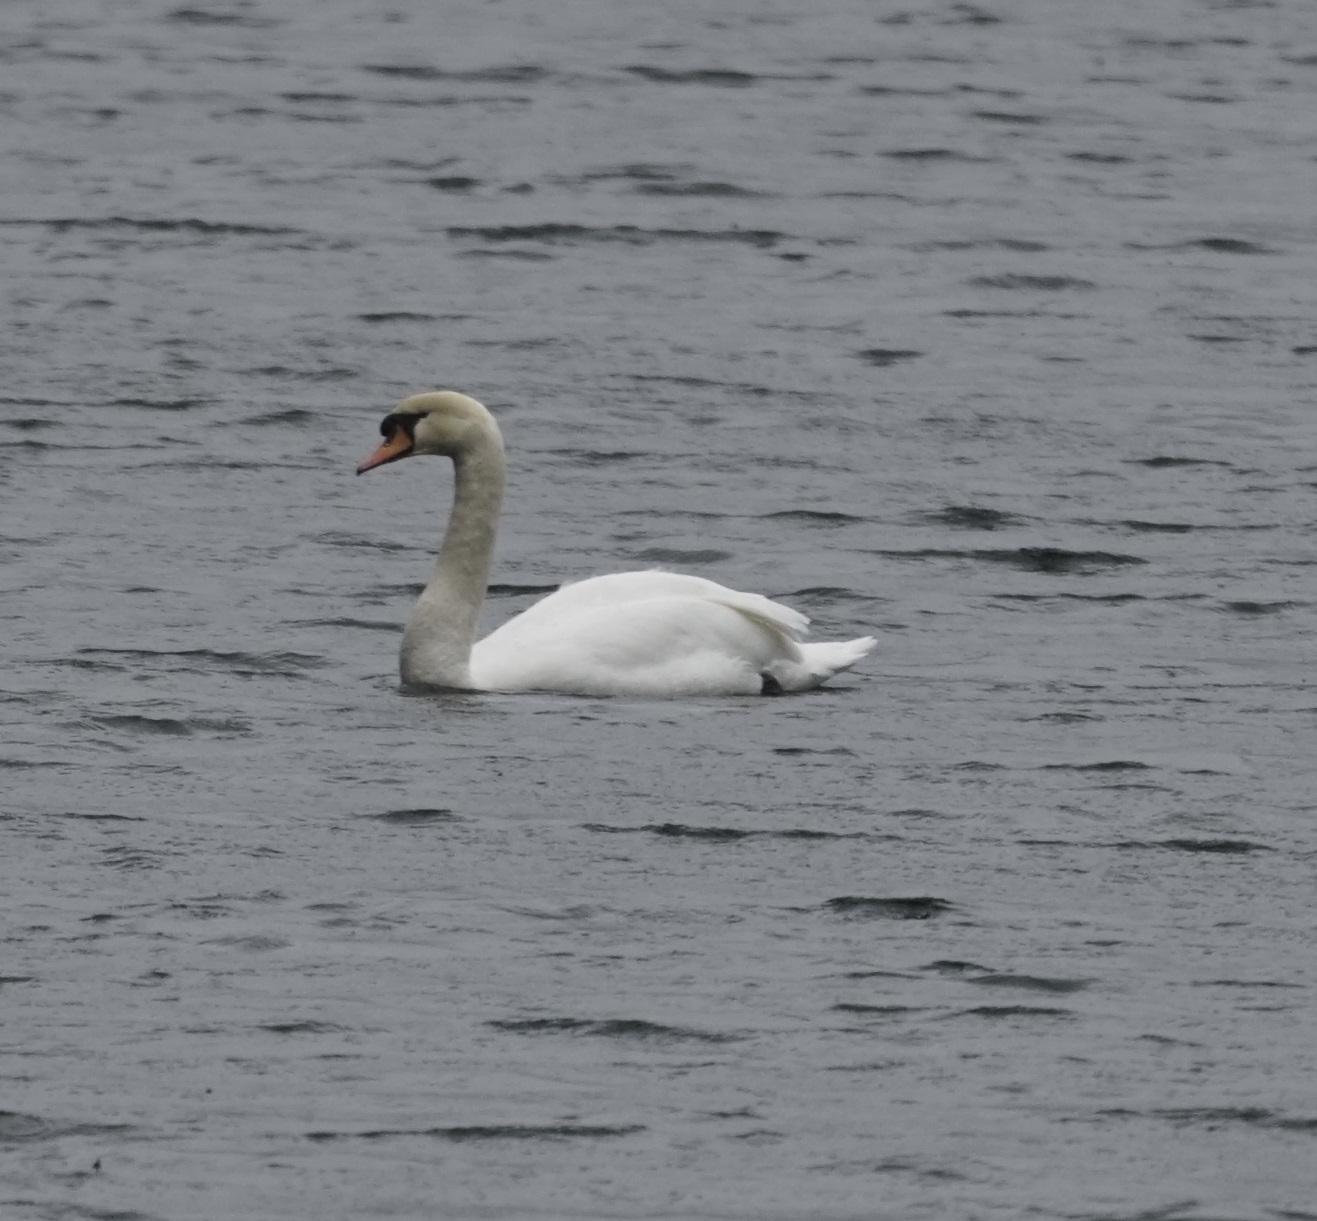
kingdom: Animalia
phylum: Chordata
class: Aves
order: Anseriformes
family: Anatidae
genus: Cygnus
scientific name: Cygnus olor
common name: Mute swan
